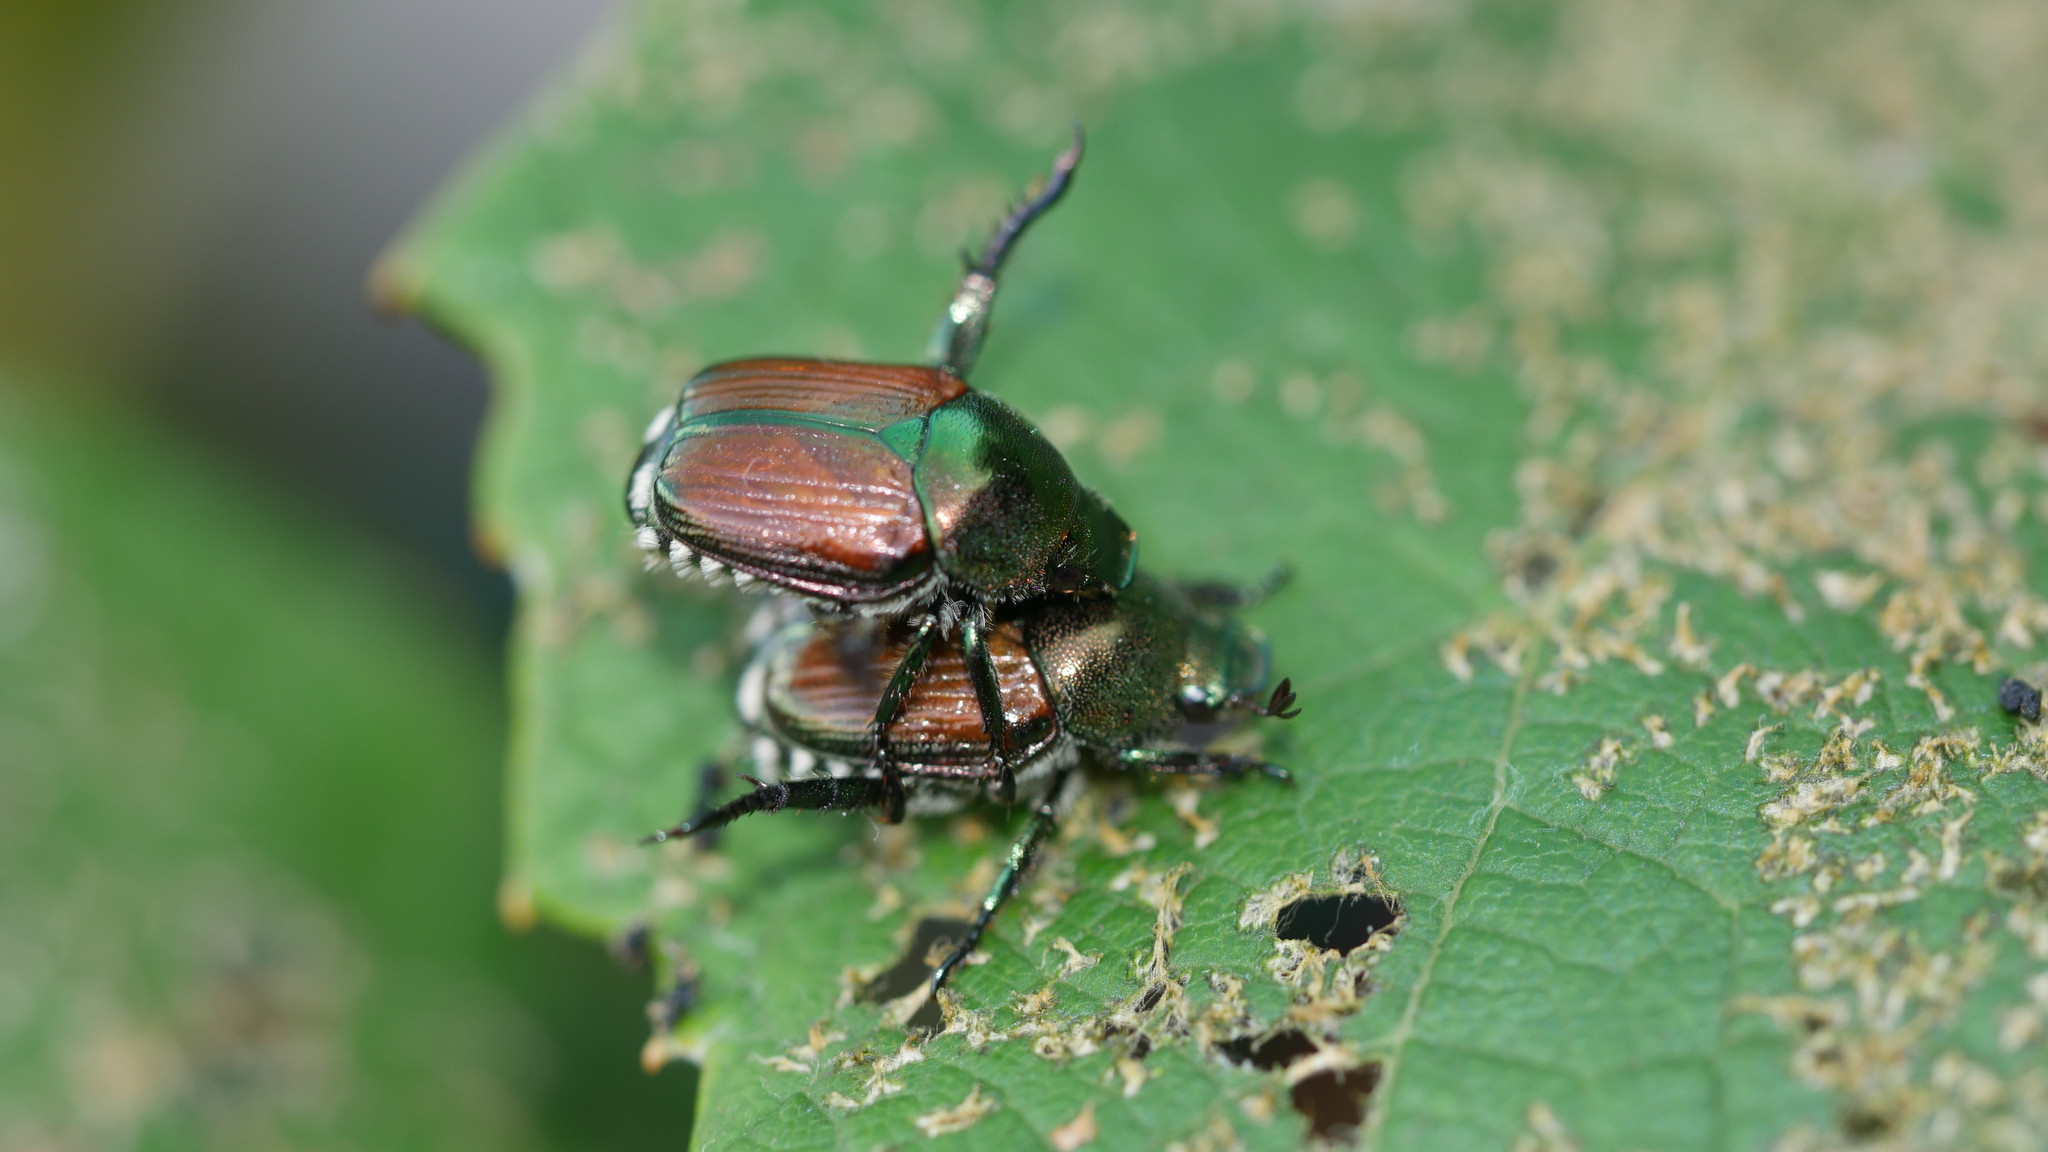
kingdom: Animalia
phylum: Arthropoda
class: Insecta
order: Coleoptera
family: Scarabaeidae
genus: Popillia
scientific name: Popillia japonica
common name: Japanese beetle
